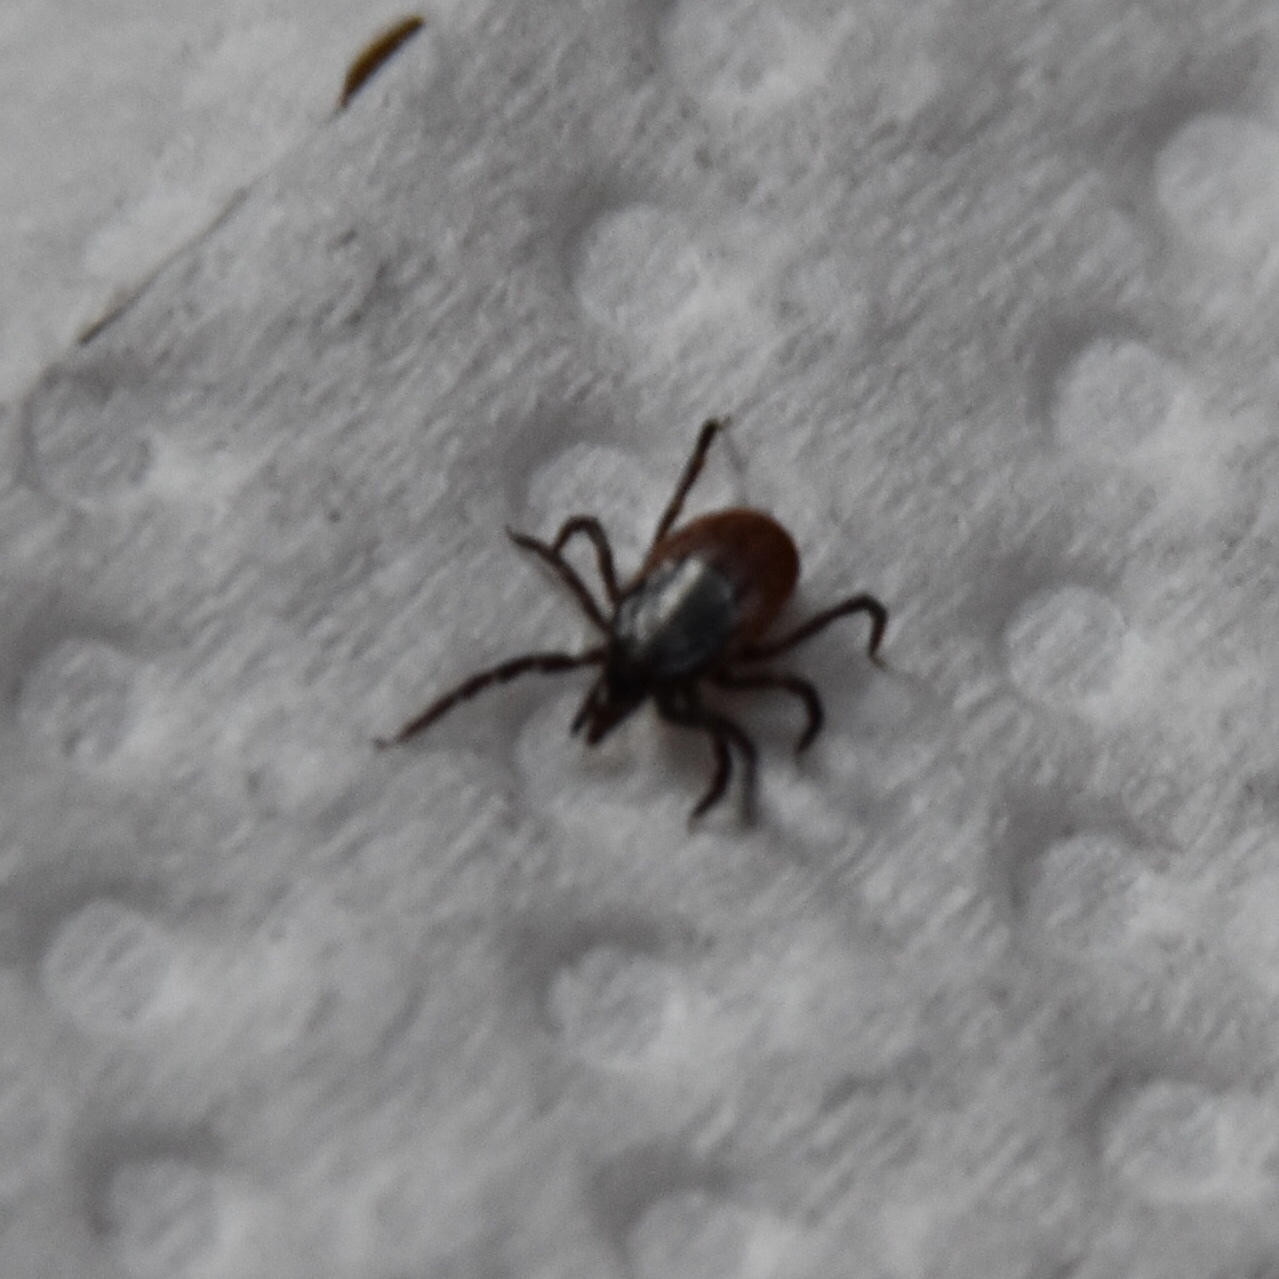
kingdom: Animalia
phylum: Arthropoda
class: Arachnida
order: Ixodida
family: Ixodidae
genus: Ixodes
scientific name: Ixodes ricinus
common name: Castor bean tick
